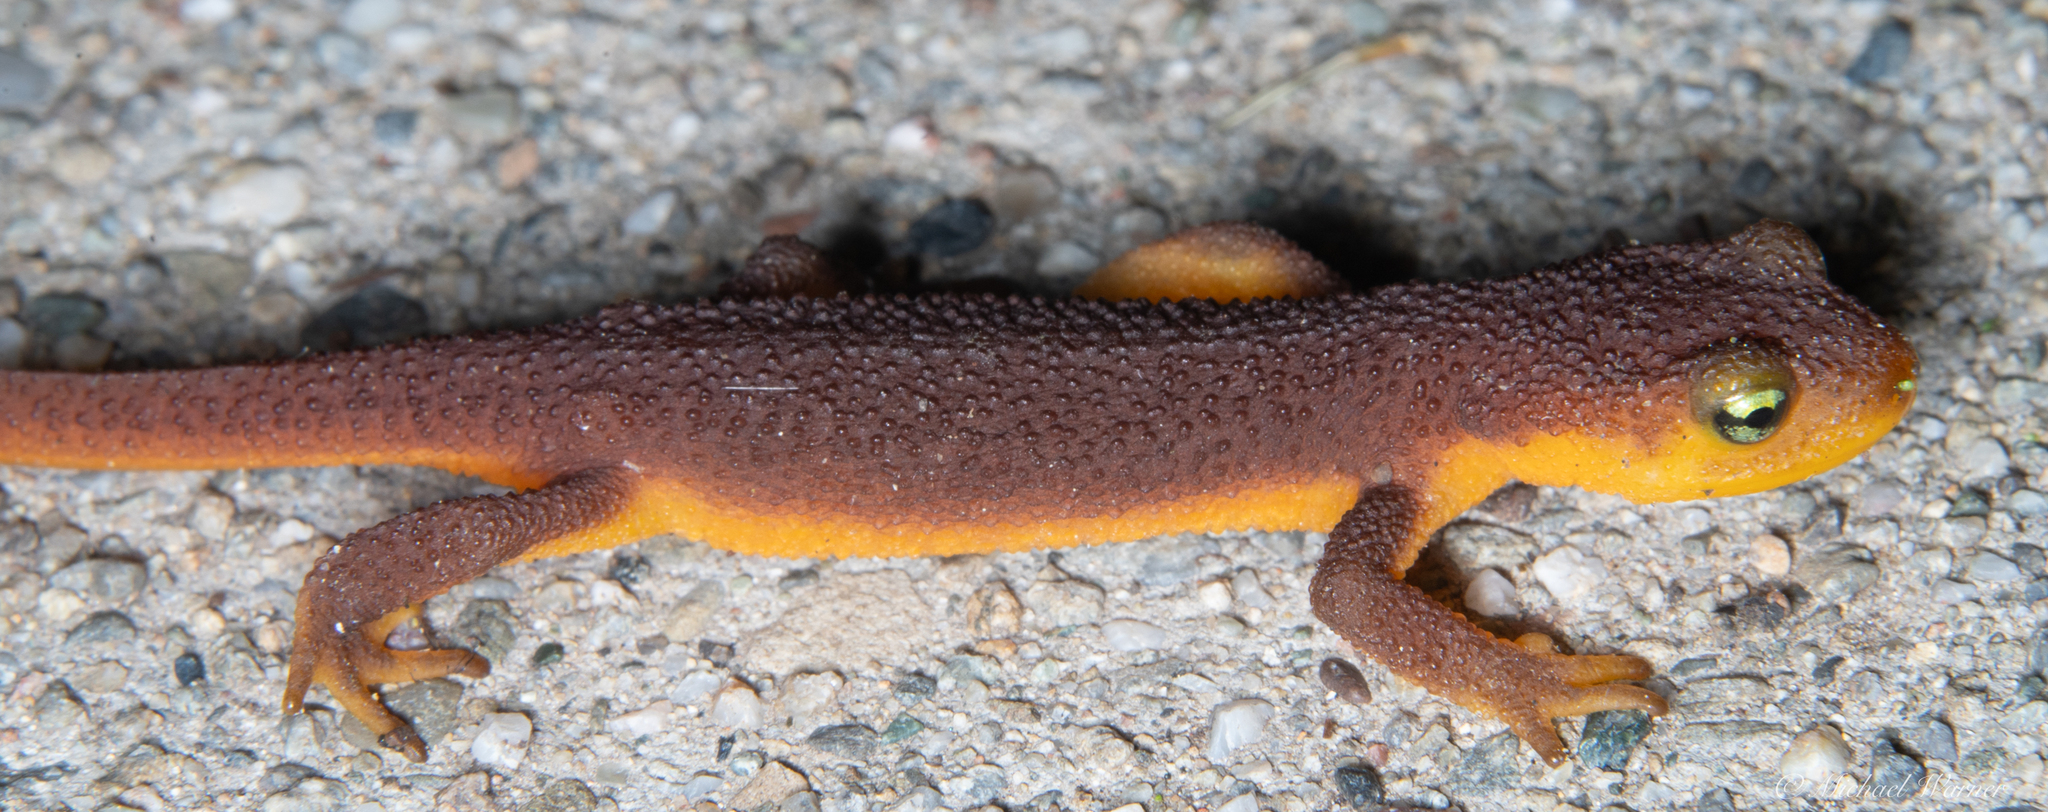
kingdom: Animalia
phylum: Chordata
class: Amphibia
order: Caudata
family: Salamandridae
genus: Taricha
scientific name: Taricha torosa
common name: California newt
